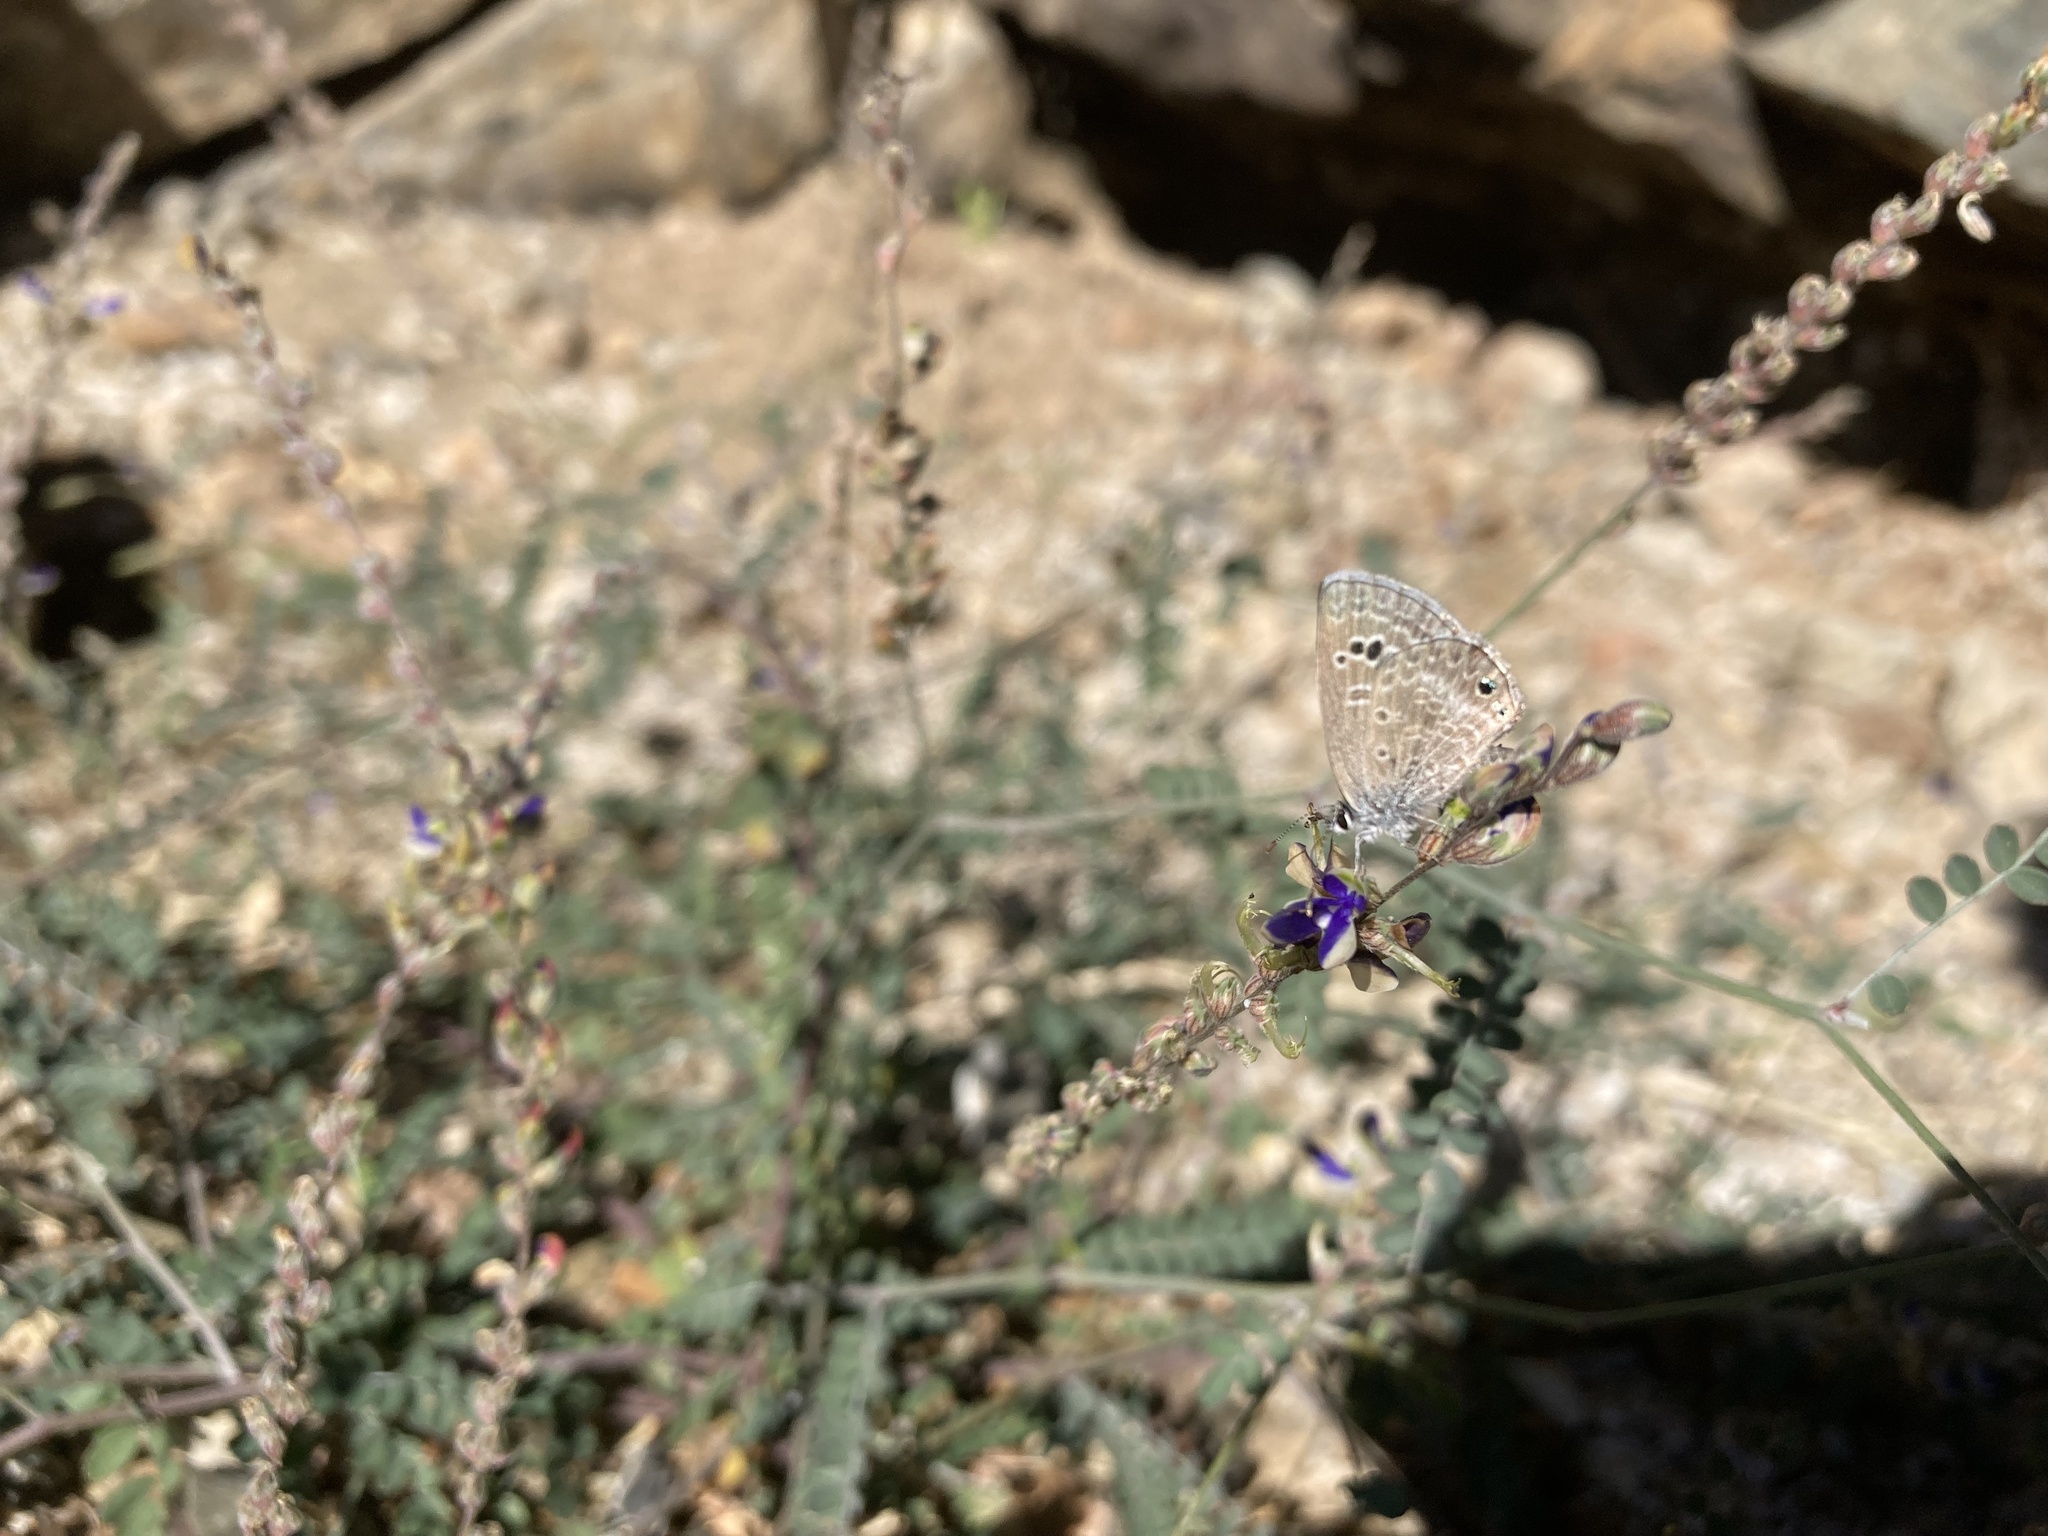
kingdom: Animalia
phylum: Arthropoda
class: Insecta
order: Lepidoptera
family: Lycaenidae
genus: Echinargus
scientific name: Echinargus isola
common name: Reakirt's blue
